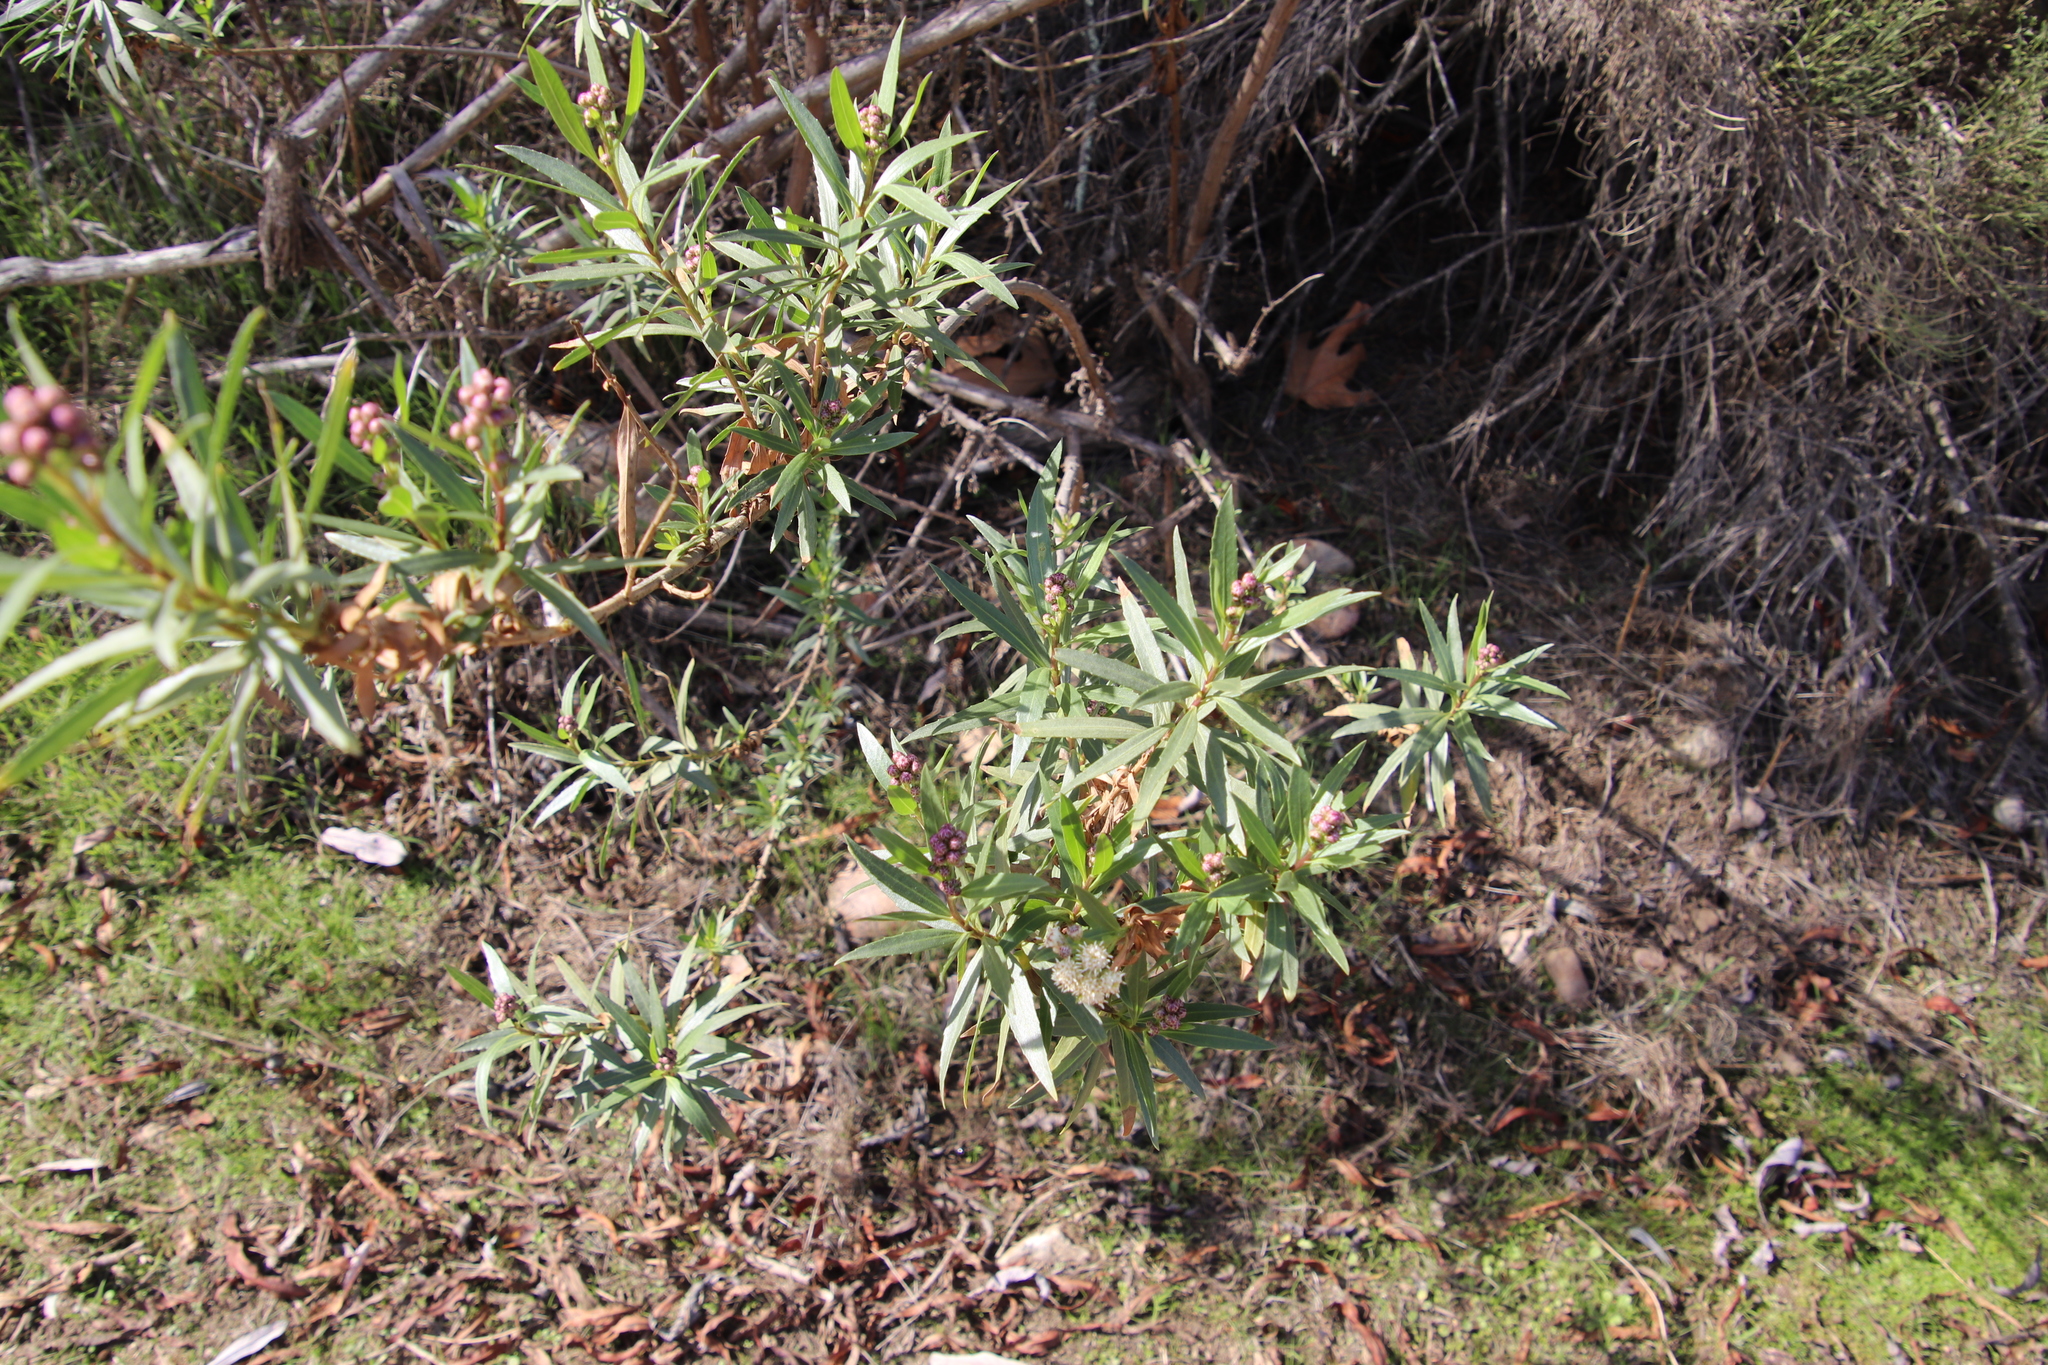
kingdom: Plantae
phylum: Tracheophyta
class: Magnoliopsida
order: Asterales
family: Asteraceae
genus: Baccharis
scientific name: Baccharis salicifolia
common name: Sticky baccharis
